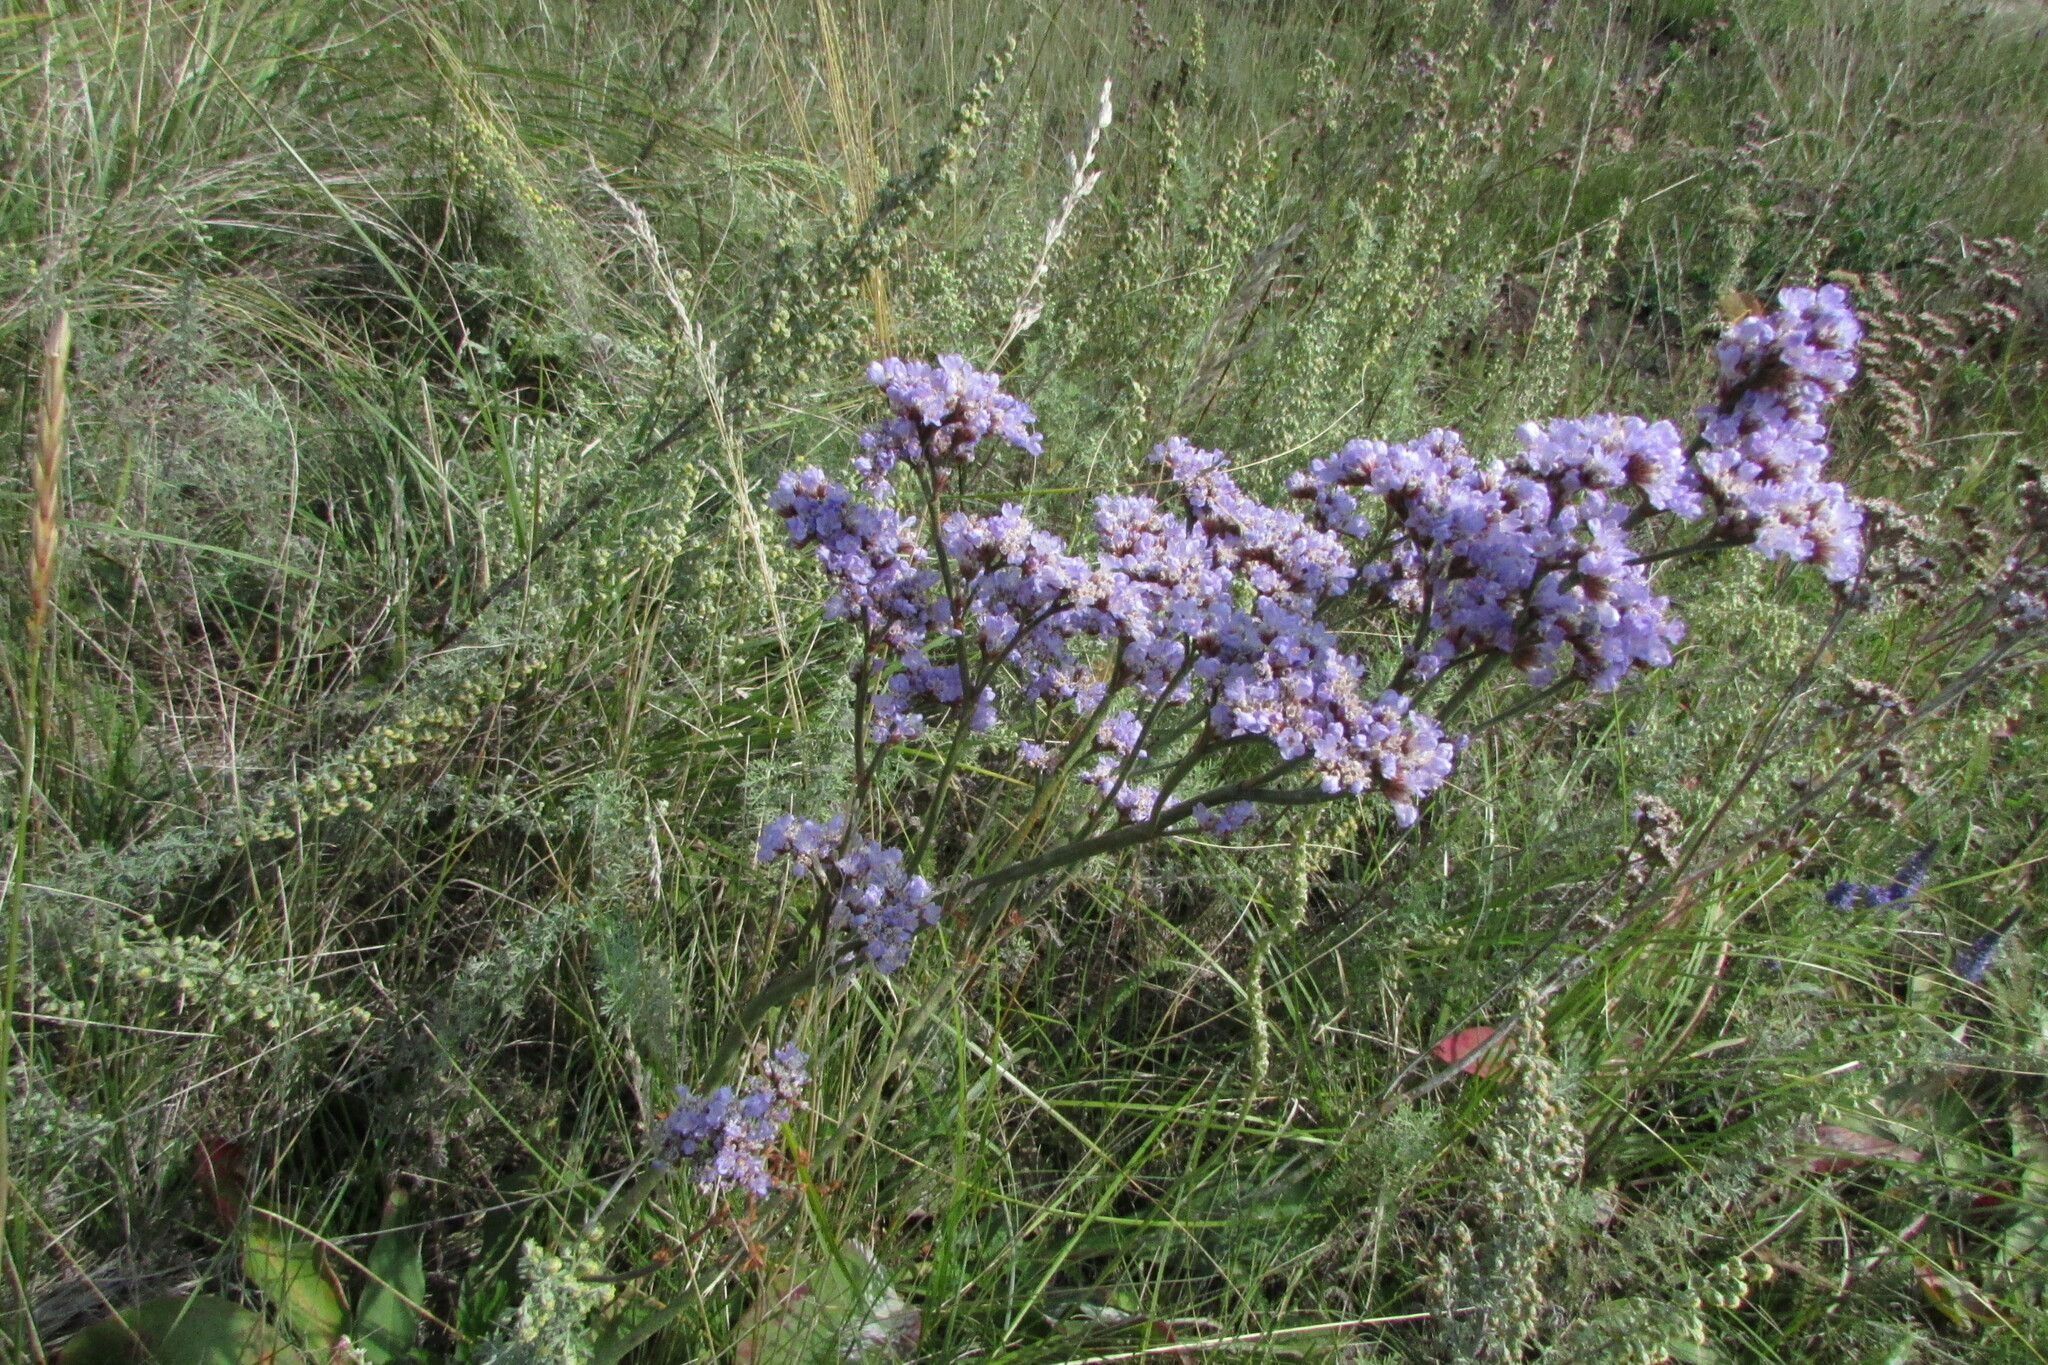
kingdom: Plantae
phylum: Tracheophyta
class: Magnoliopsida
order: Caryophyllales
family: Plumbaginaceae
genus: Limonium
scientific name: Limonium tomentellum
